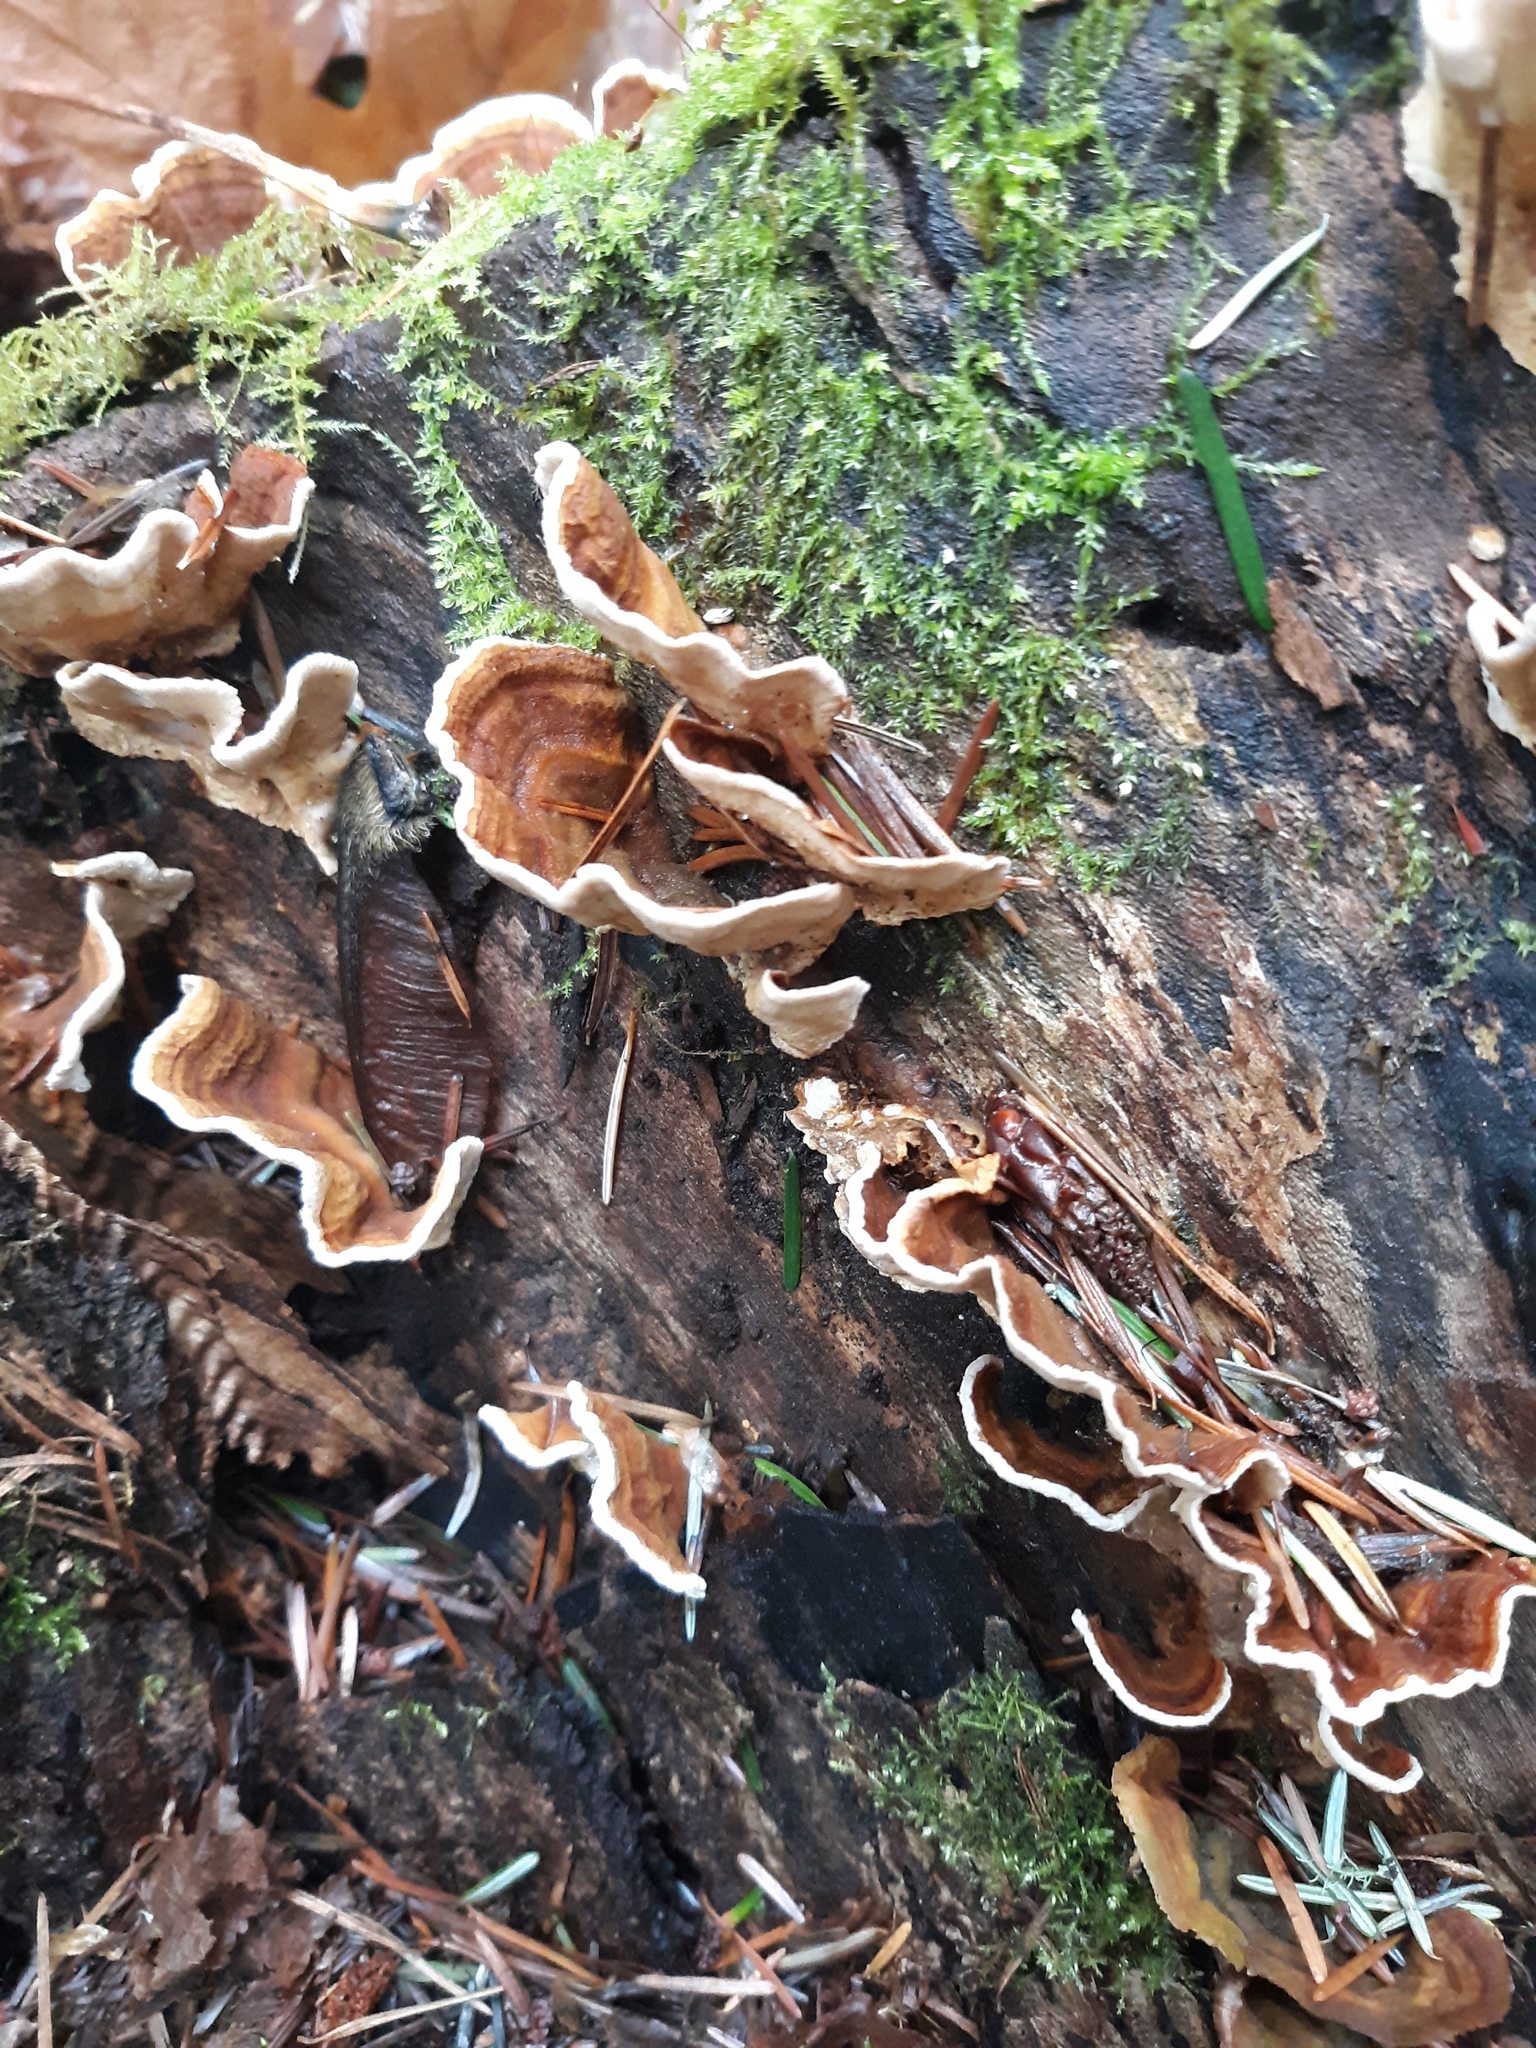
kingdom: Fungi
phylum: Basidiomycota
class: Agaricomycetes
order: Polyporales
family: Polyporaceae
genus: Trametes
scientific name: Trametes versicolor
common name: Turkeytail
